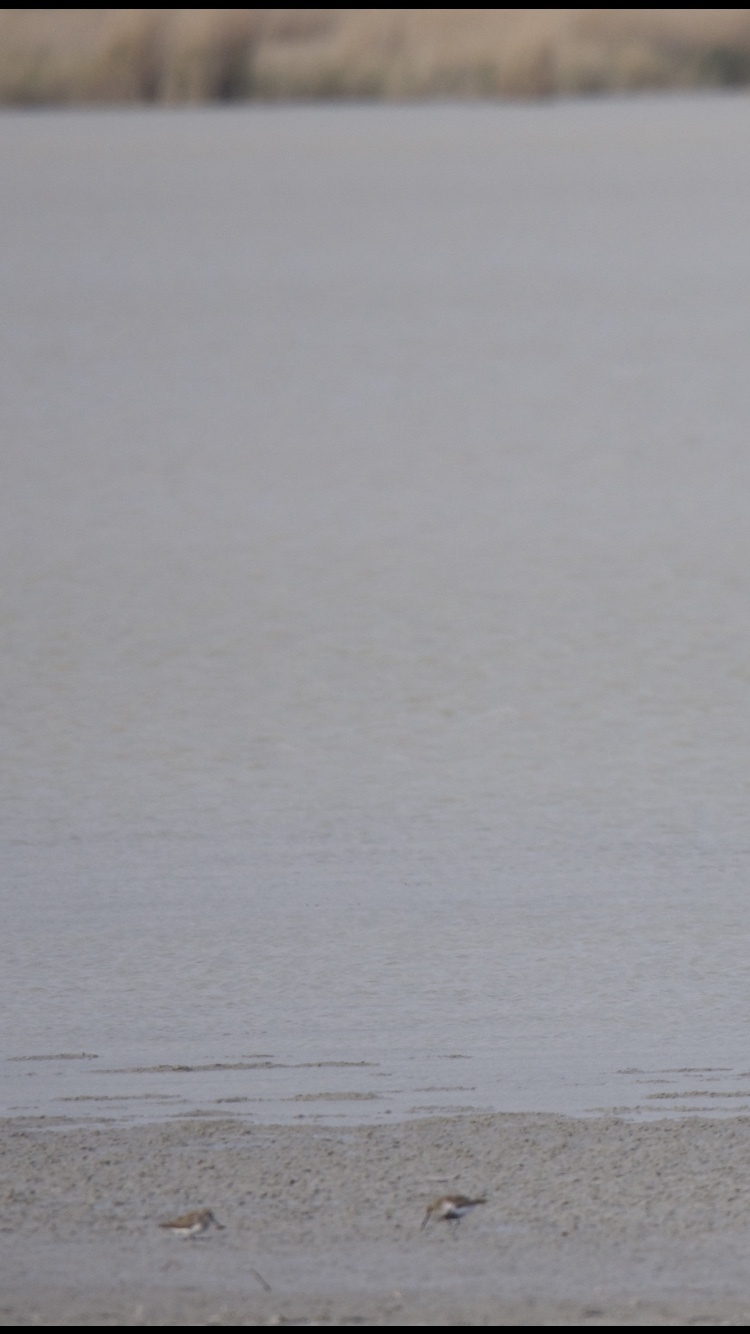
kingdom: Animalia
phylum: Chordata
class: Aves
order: Charadriiformes
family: Scolopacidae
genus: Calidris
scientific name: Calidris alpina
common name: Dunlin
